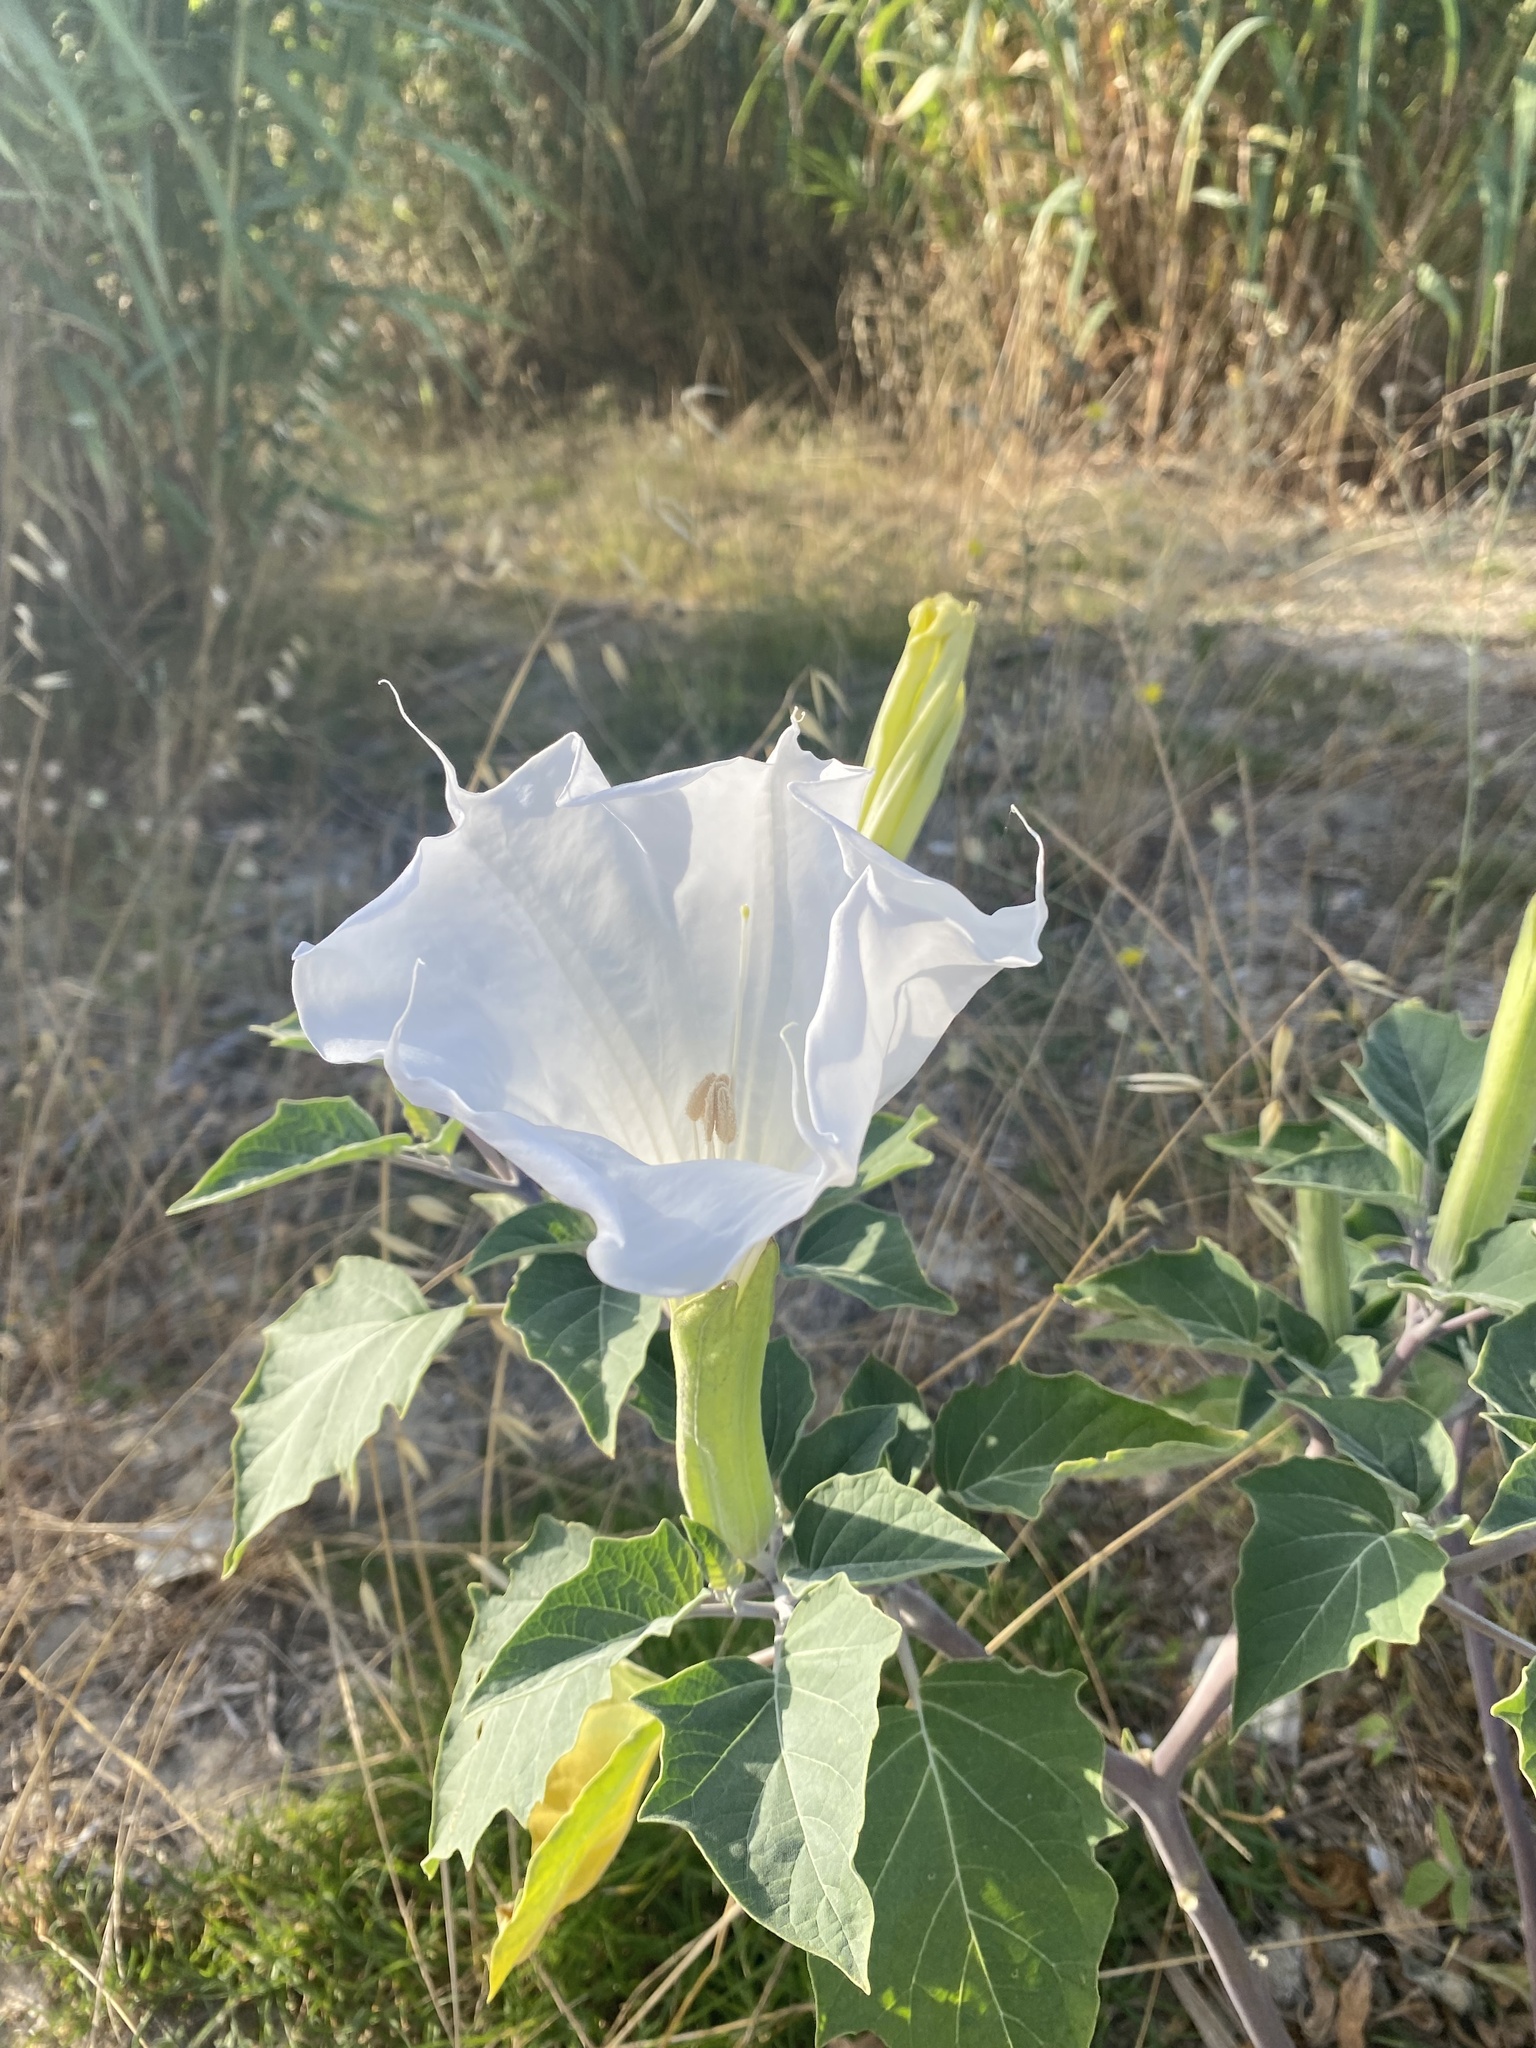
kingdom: Plantae
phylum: Tracheophyta
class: Magnoliopsida
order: Solanales
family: Solanaceae
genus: Datura
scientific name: Datura wrightii
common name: Sacred thorn-apple
